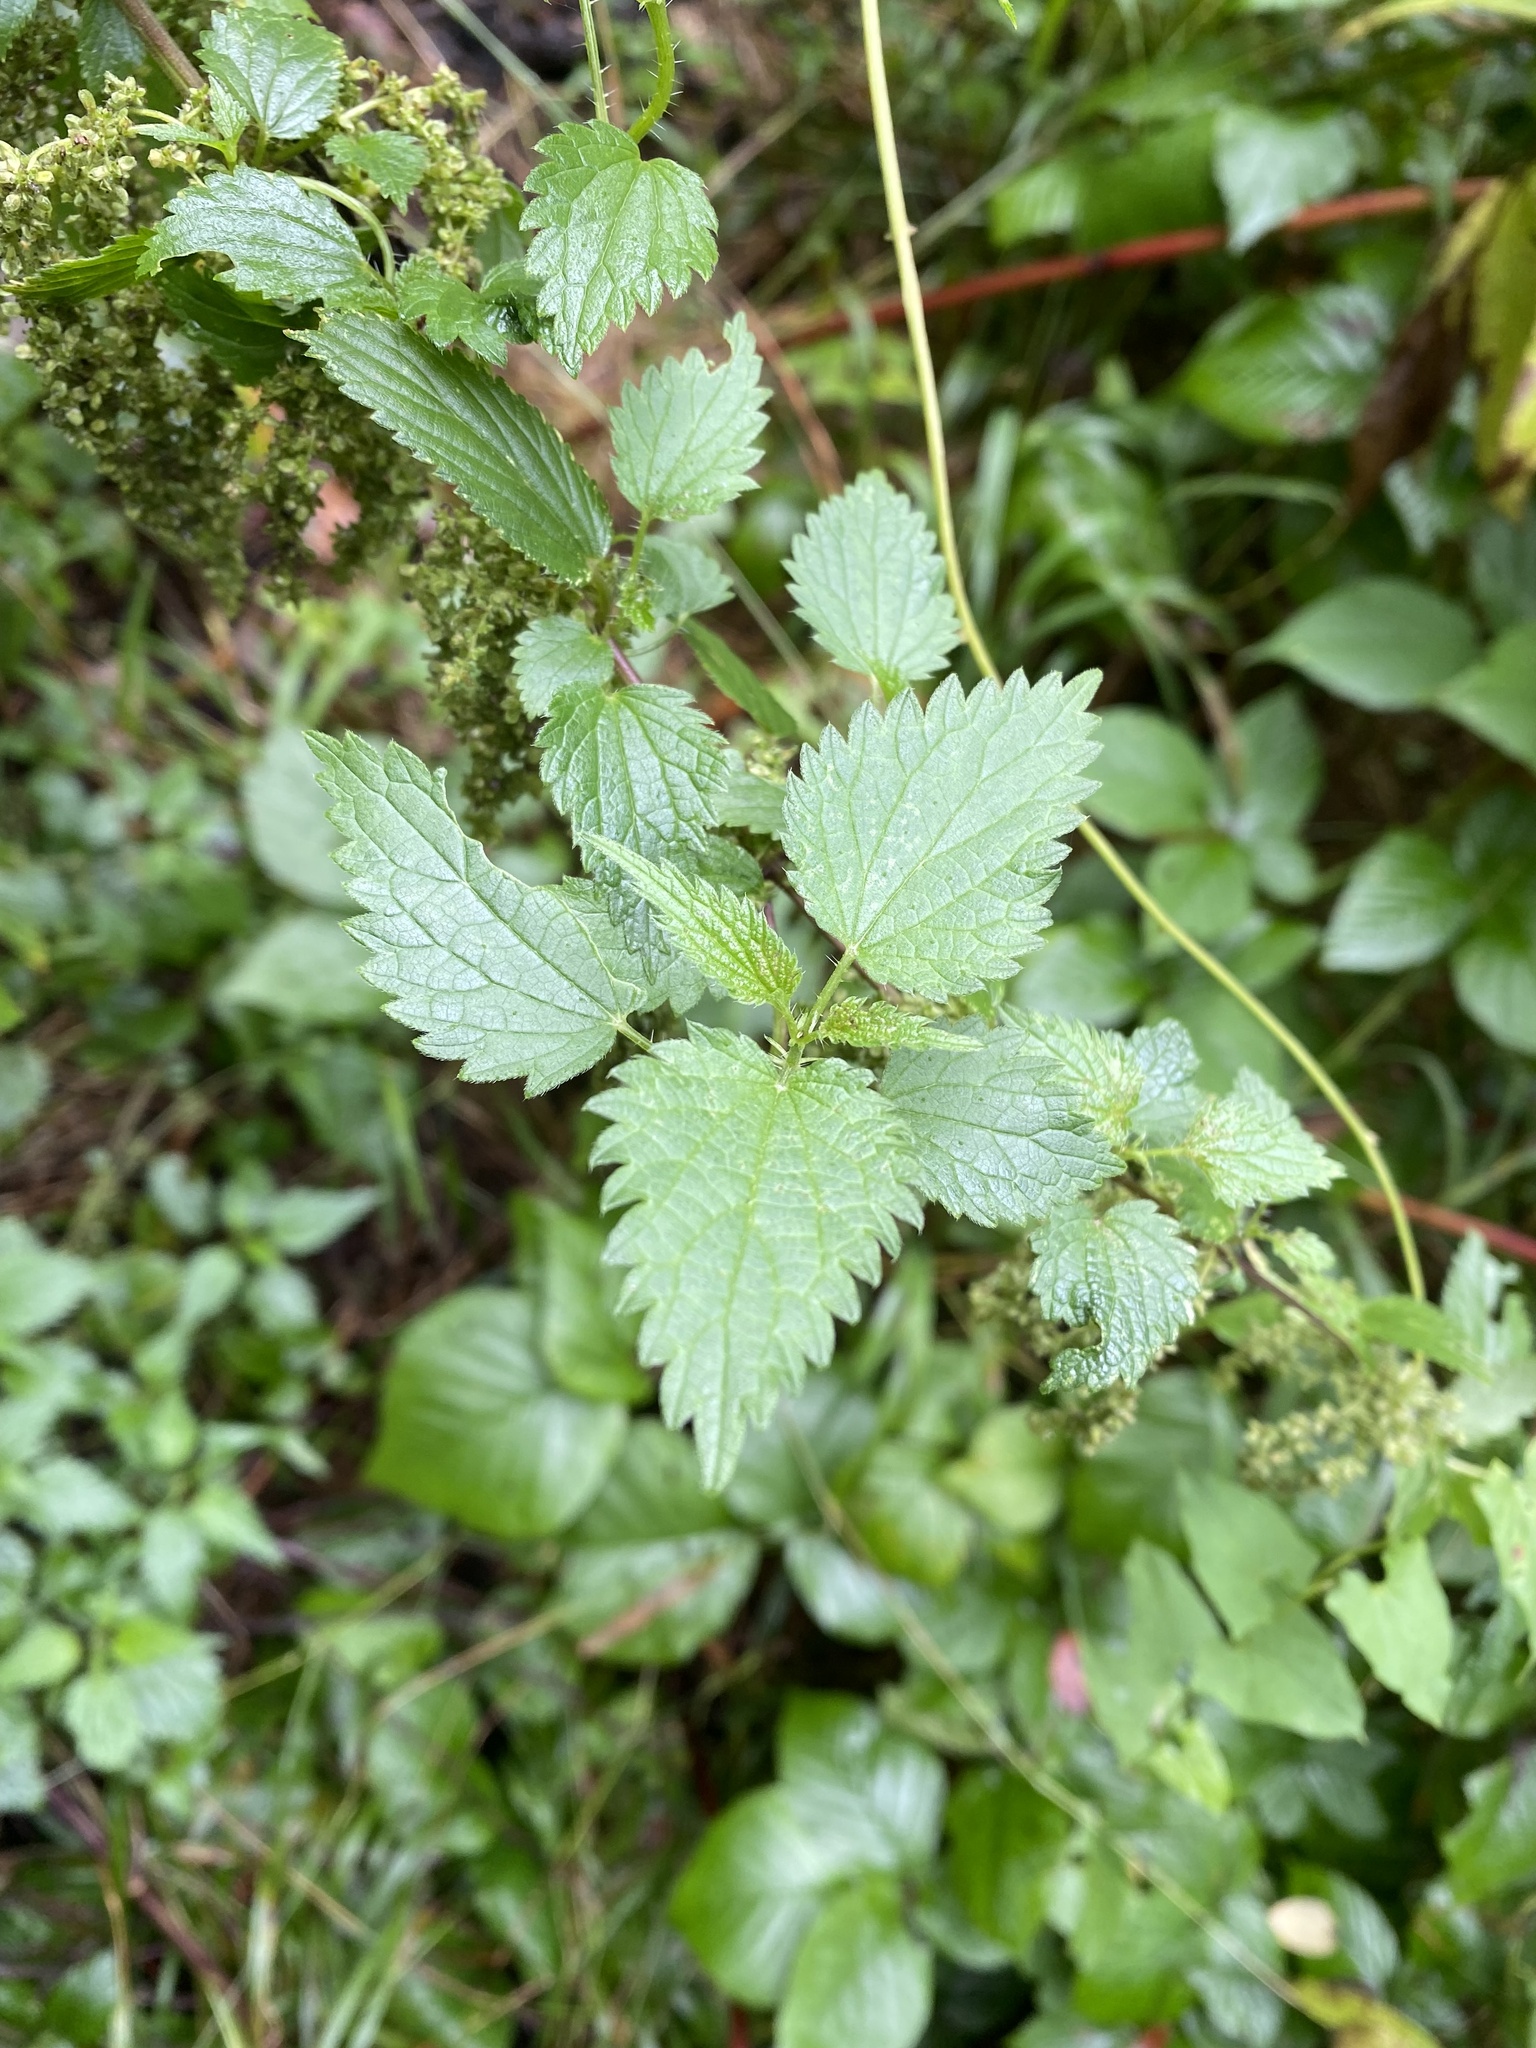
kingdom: Plantae
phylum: Tracheophyta
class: Magnoliopsida
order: Rosales
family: Urticaceae
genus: Urtica
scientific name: Urtica dioica
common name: Common nettle
